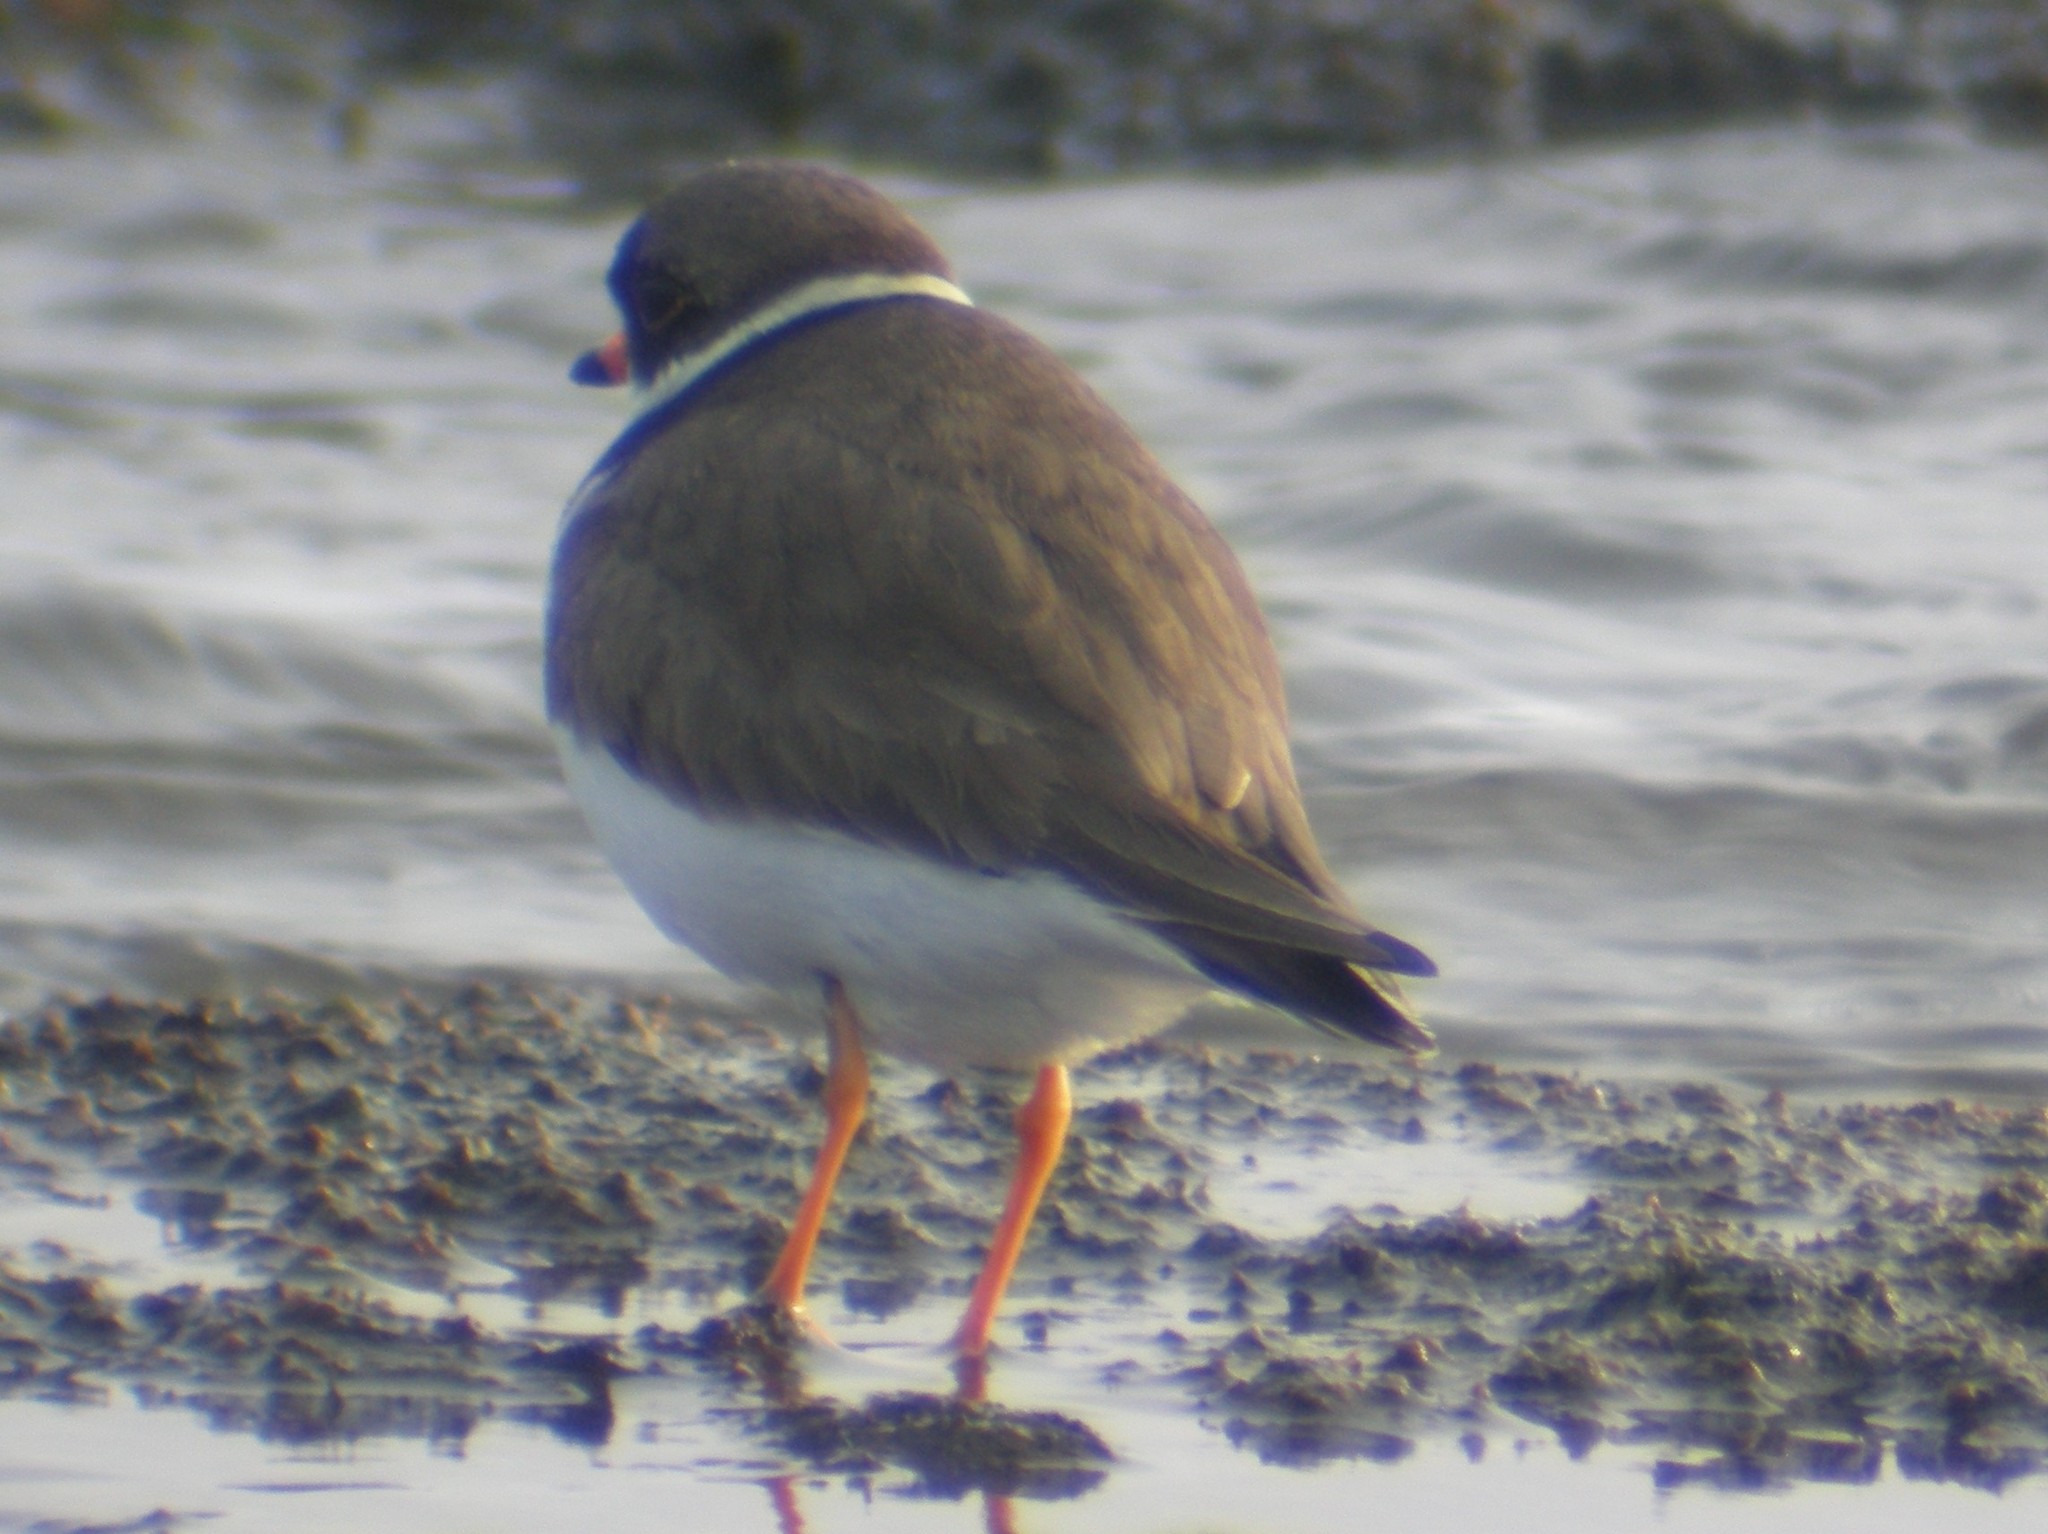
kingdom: Animalia
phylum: Chordata
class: Aves
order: Charadriiformes
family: Charadriidae
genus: Charadrius
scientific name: Charadrius semipalmatus
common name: Semipalmated plover
